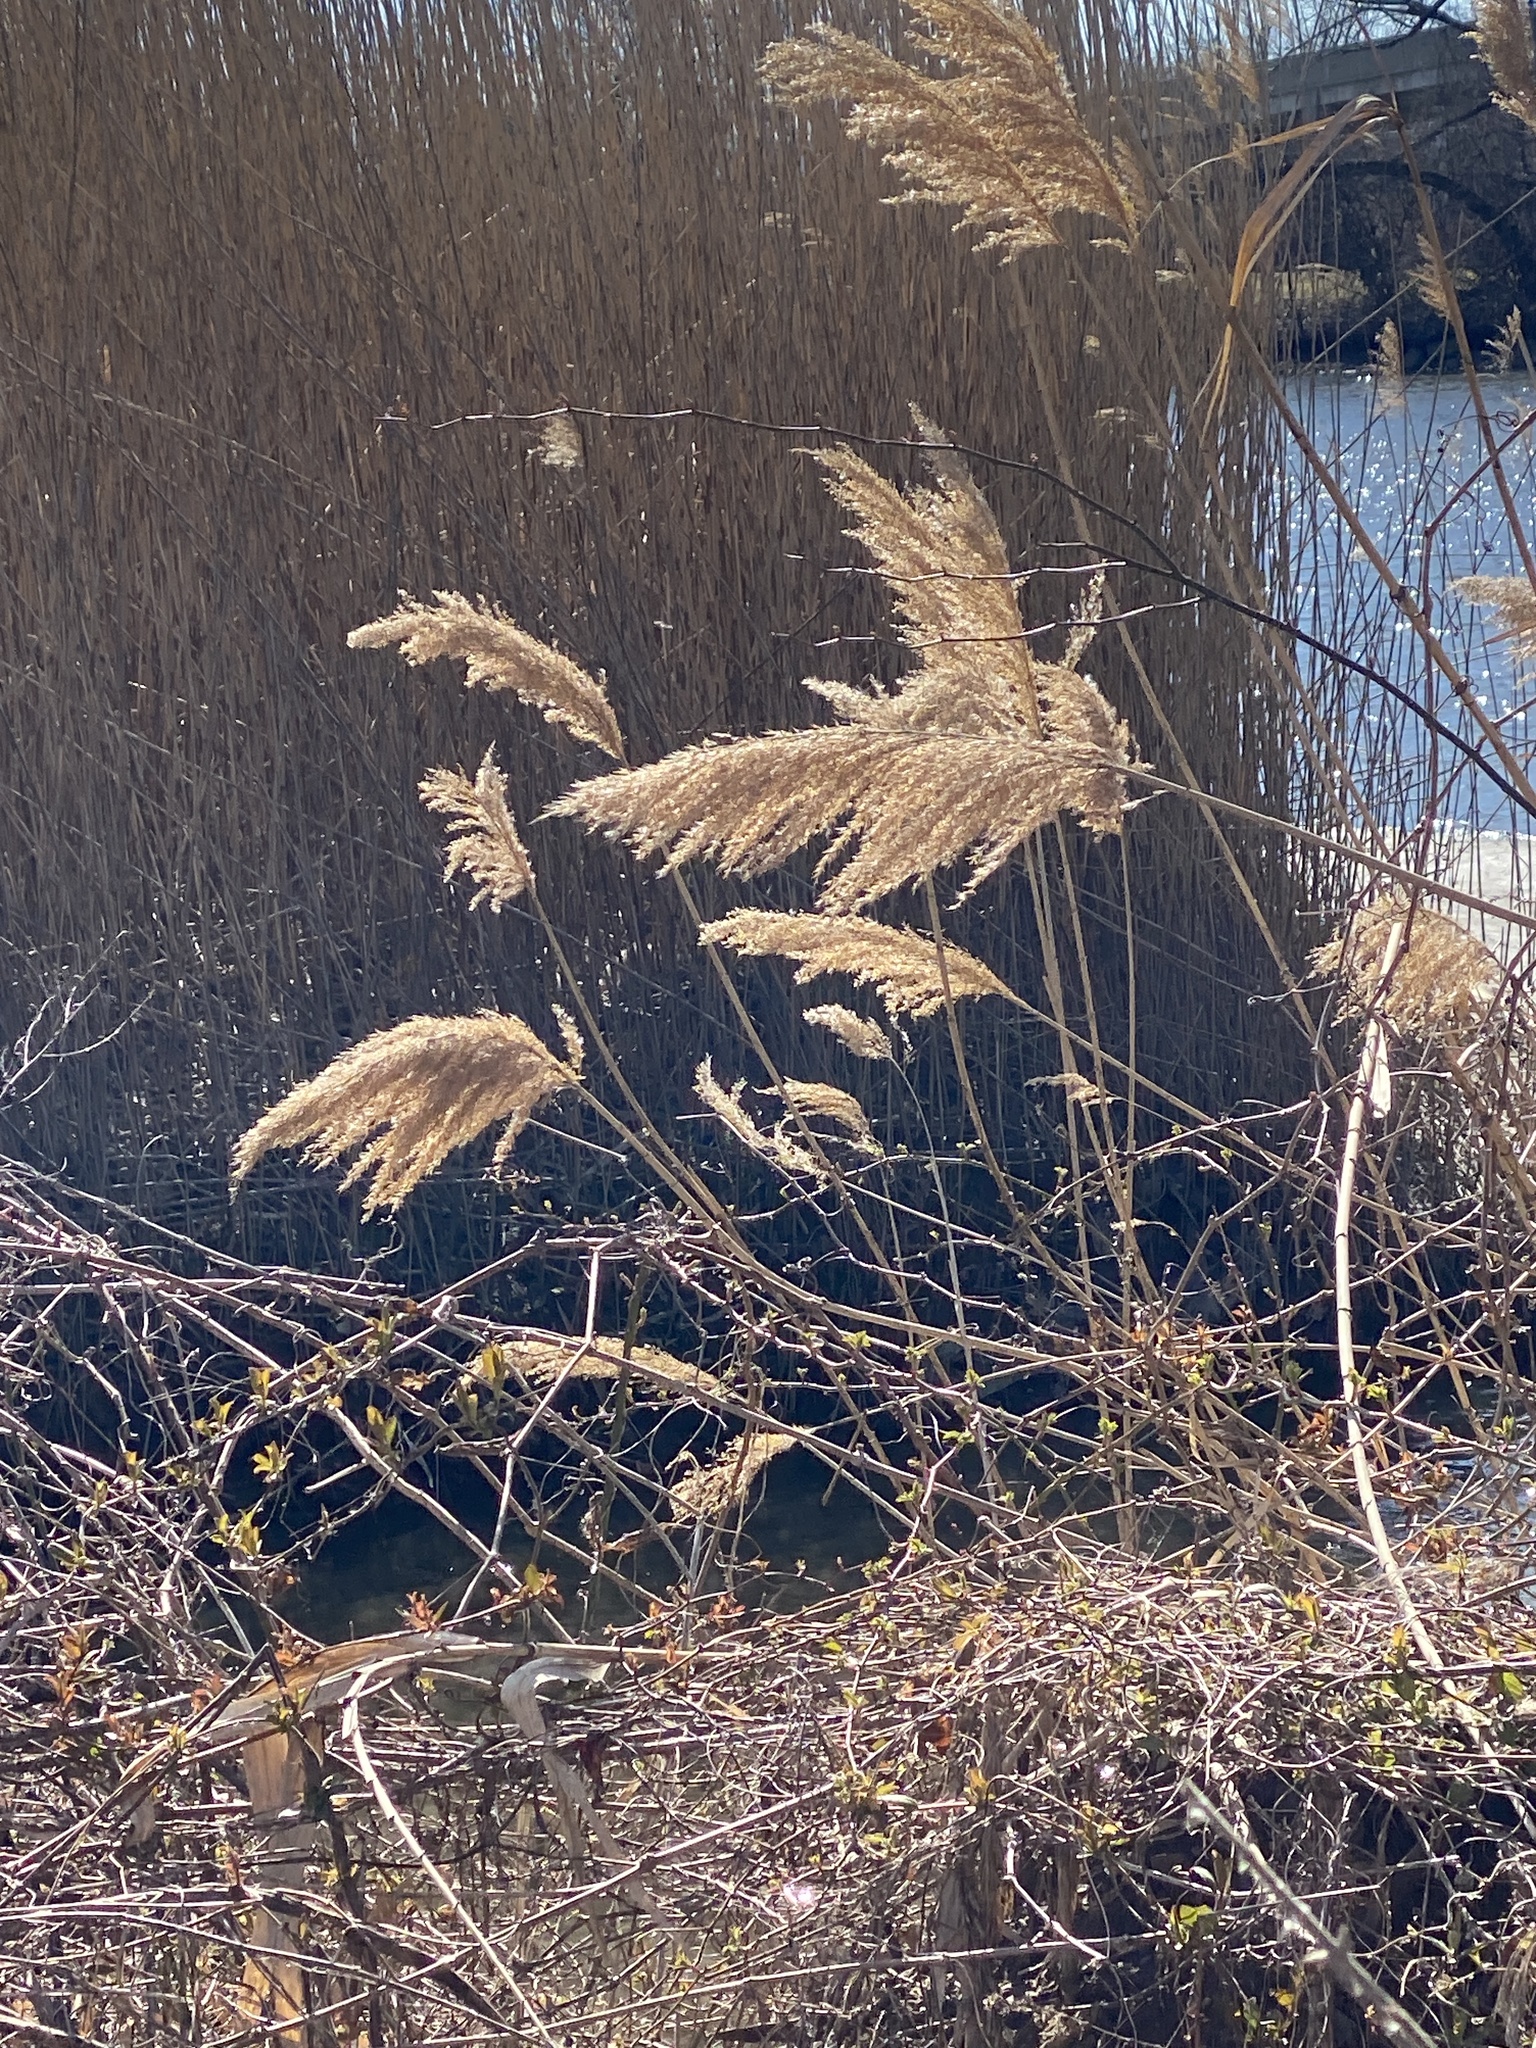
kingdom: Plantae
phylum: Tracheophyta
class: Liliopsida
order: Poales
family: Poaceae
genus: Phragmites
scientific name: Phragmites australis
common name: Common reed
